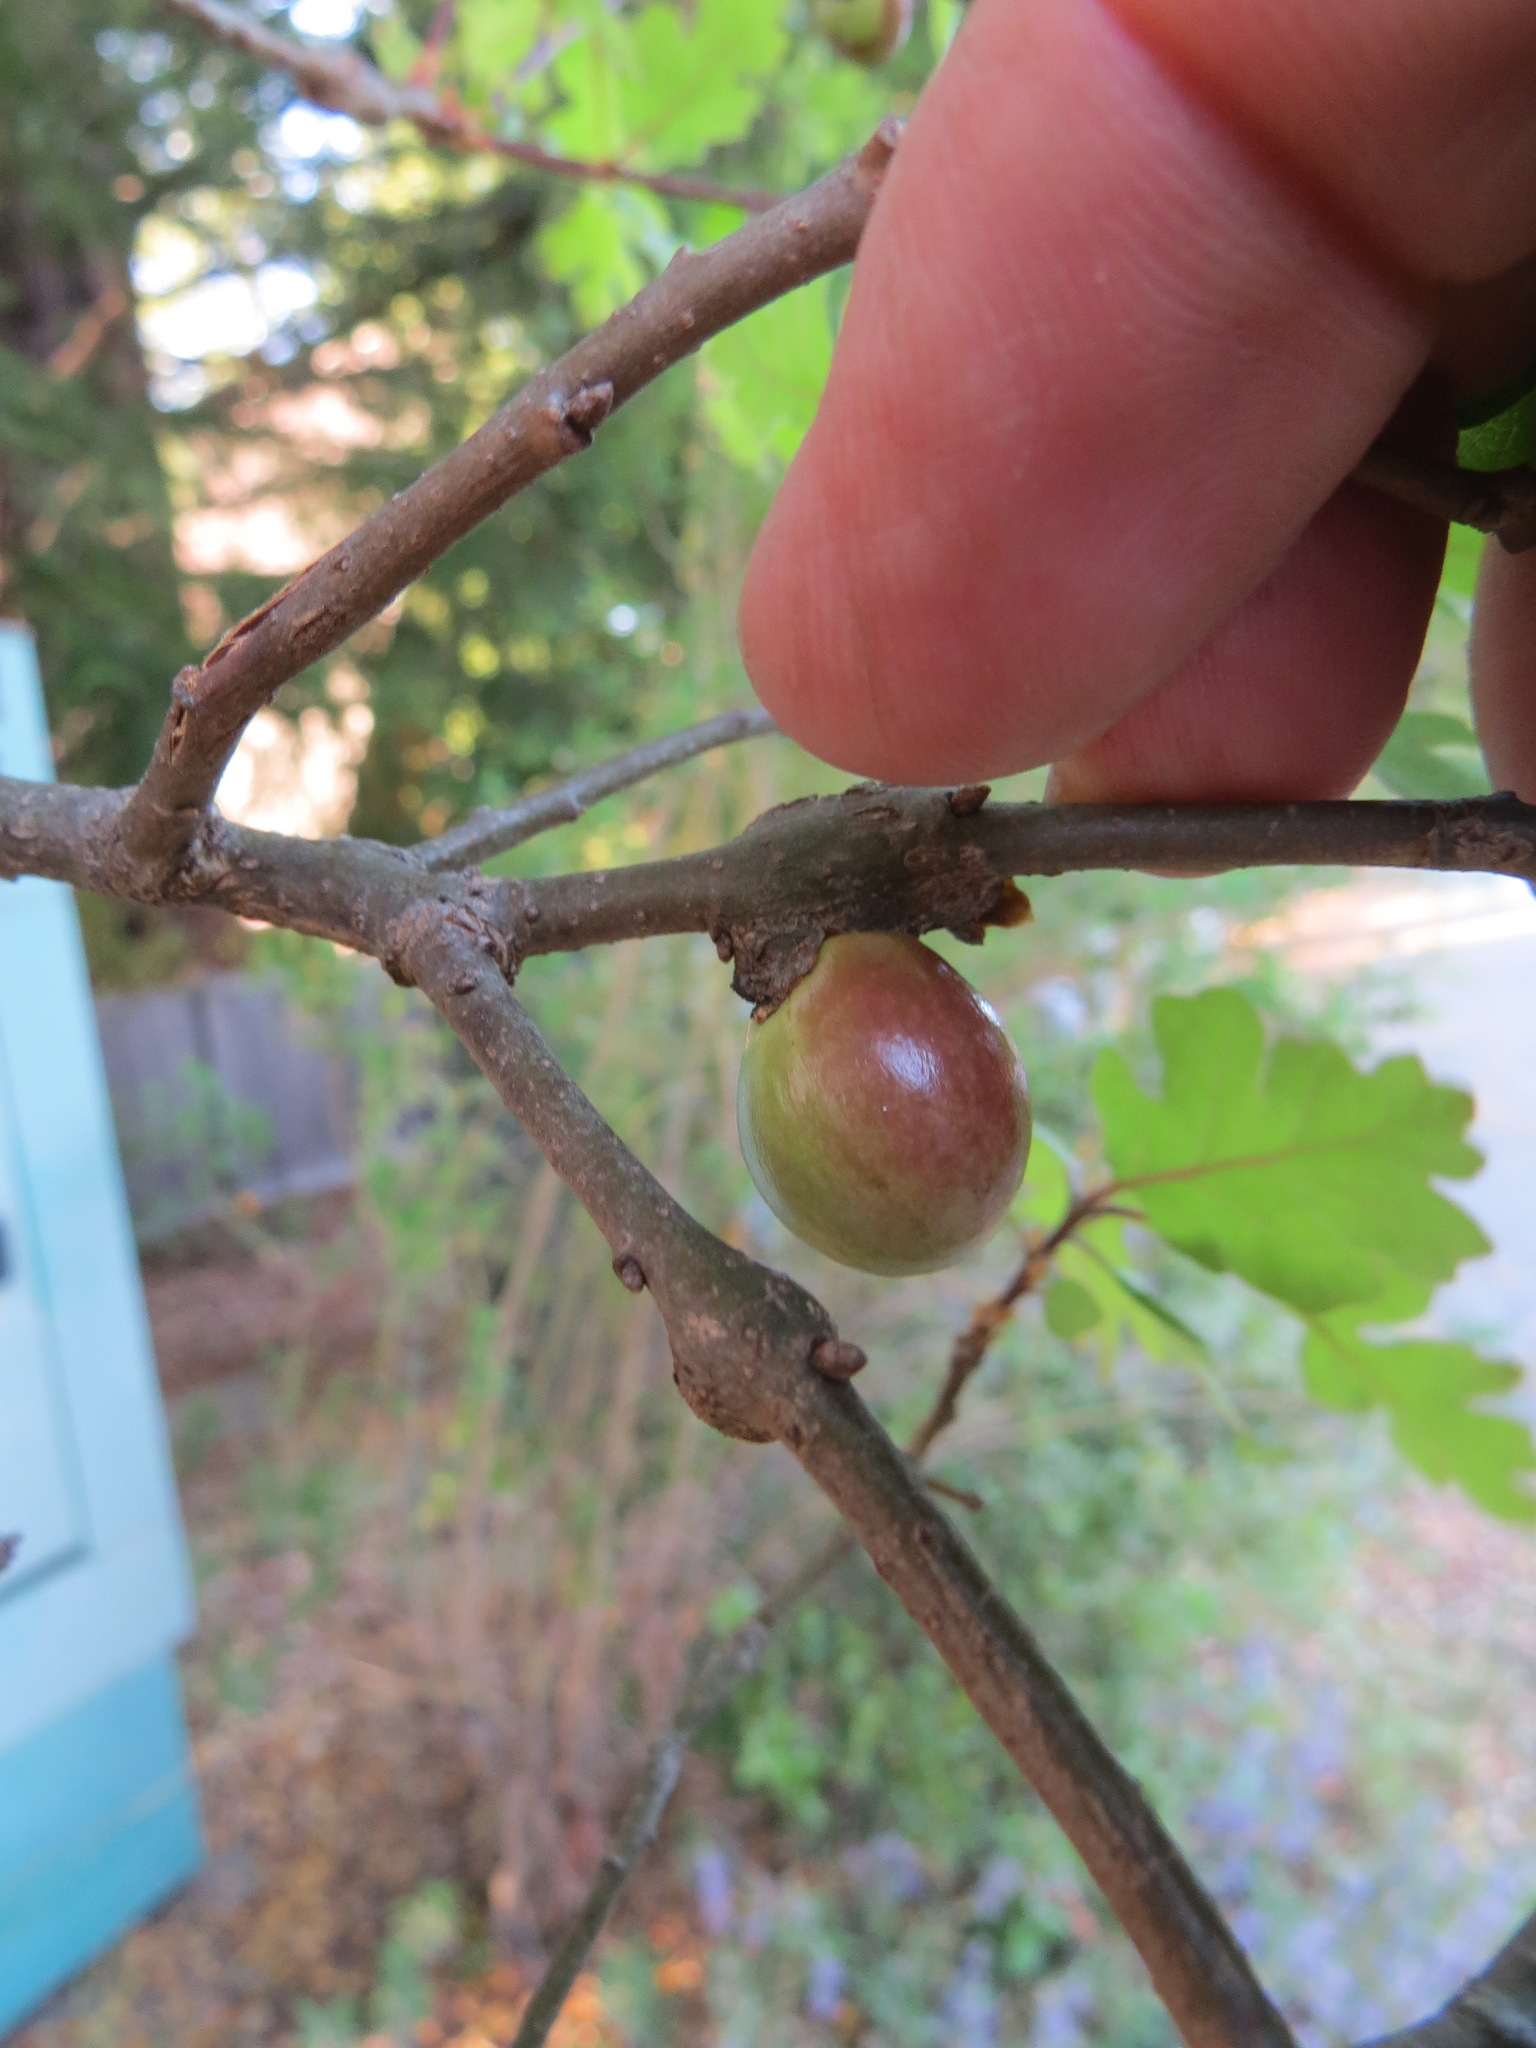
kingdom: Animalia
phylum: Arthropoda
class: Insecta
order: Hymenoptera
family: Cynipidae
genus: Andricus
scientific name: Andricus quercuscalifornicus
